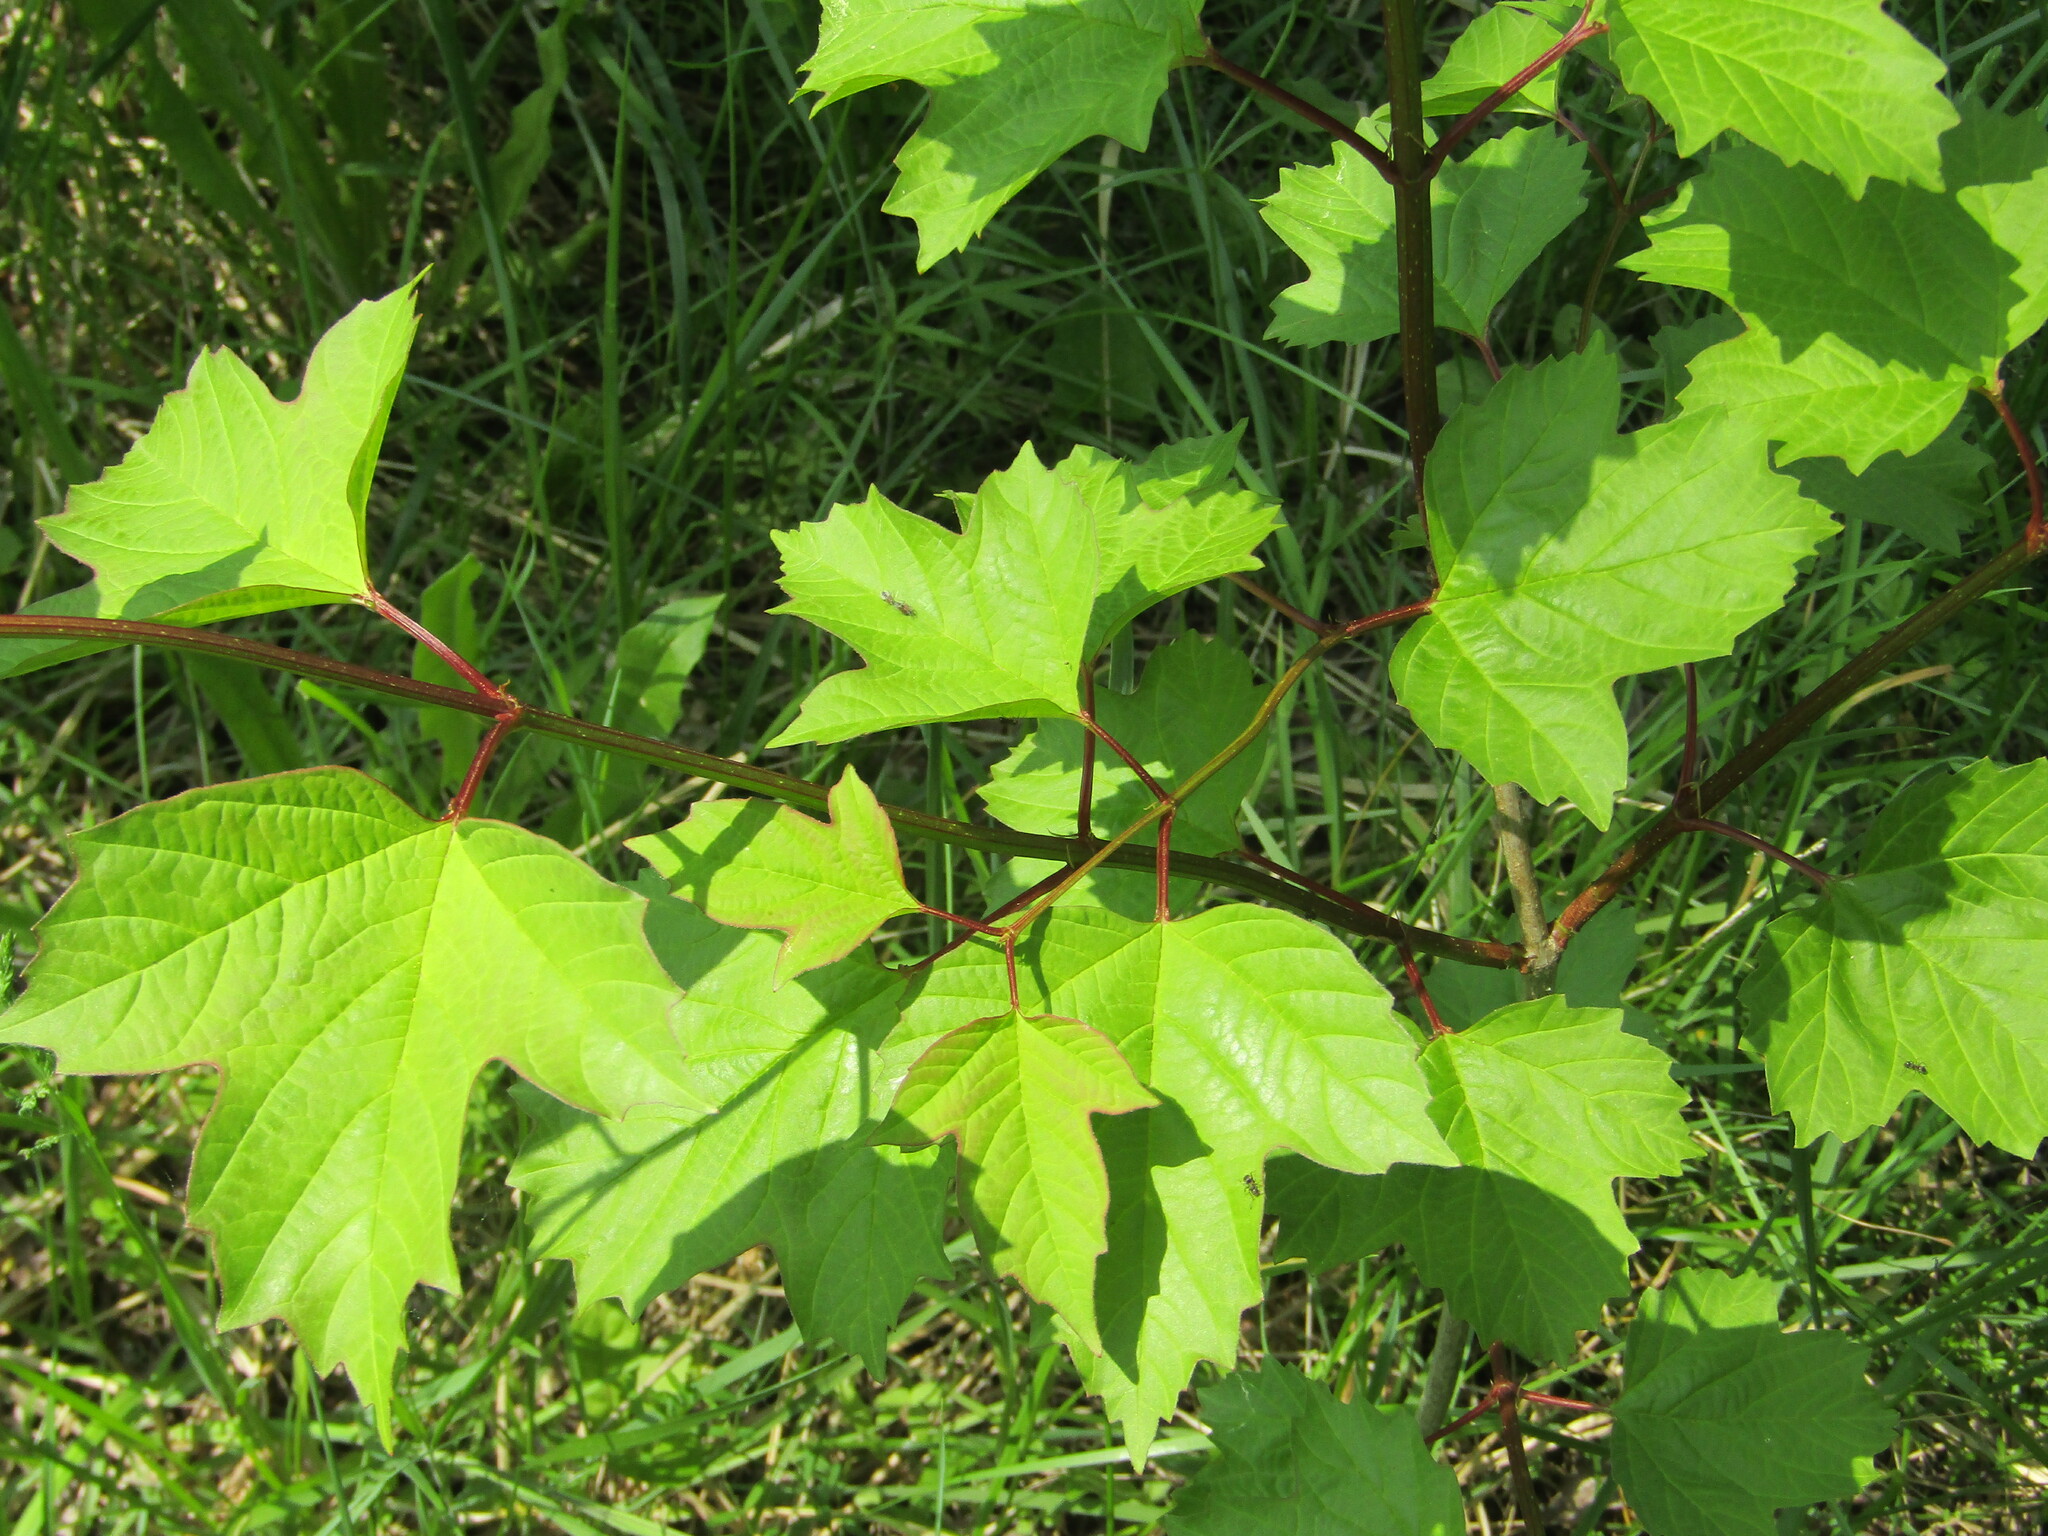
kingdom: Plantae
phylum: Tracheophyta
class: Magnoliopsida
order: Dipsacales
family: Viburnaceae
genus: Viburnum
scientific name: Viburnum opulus
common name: Guelder-rose
